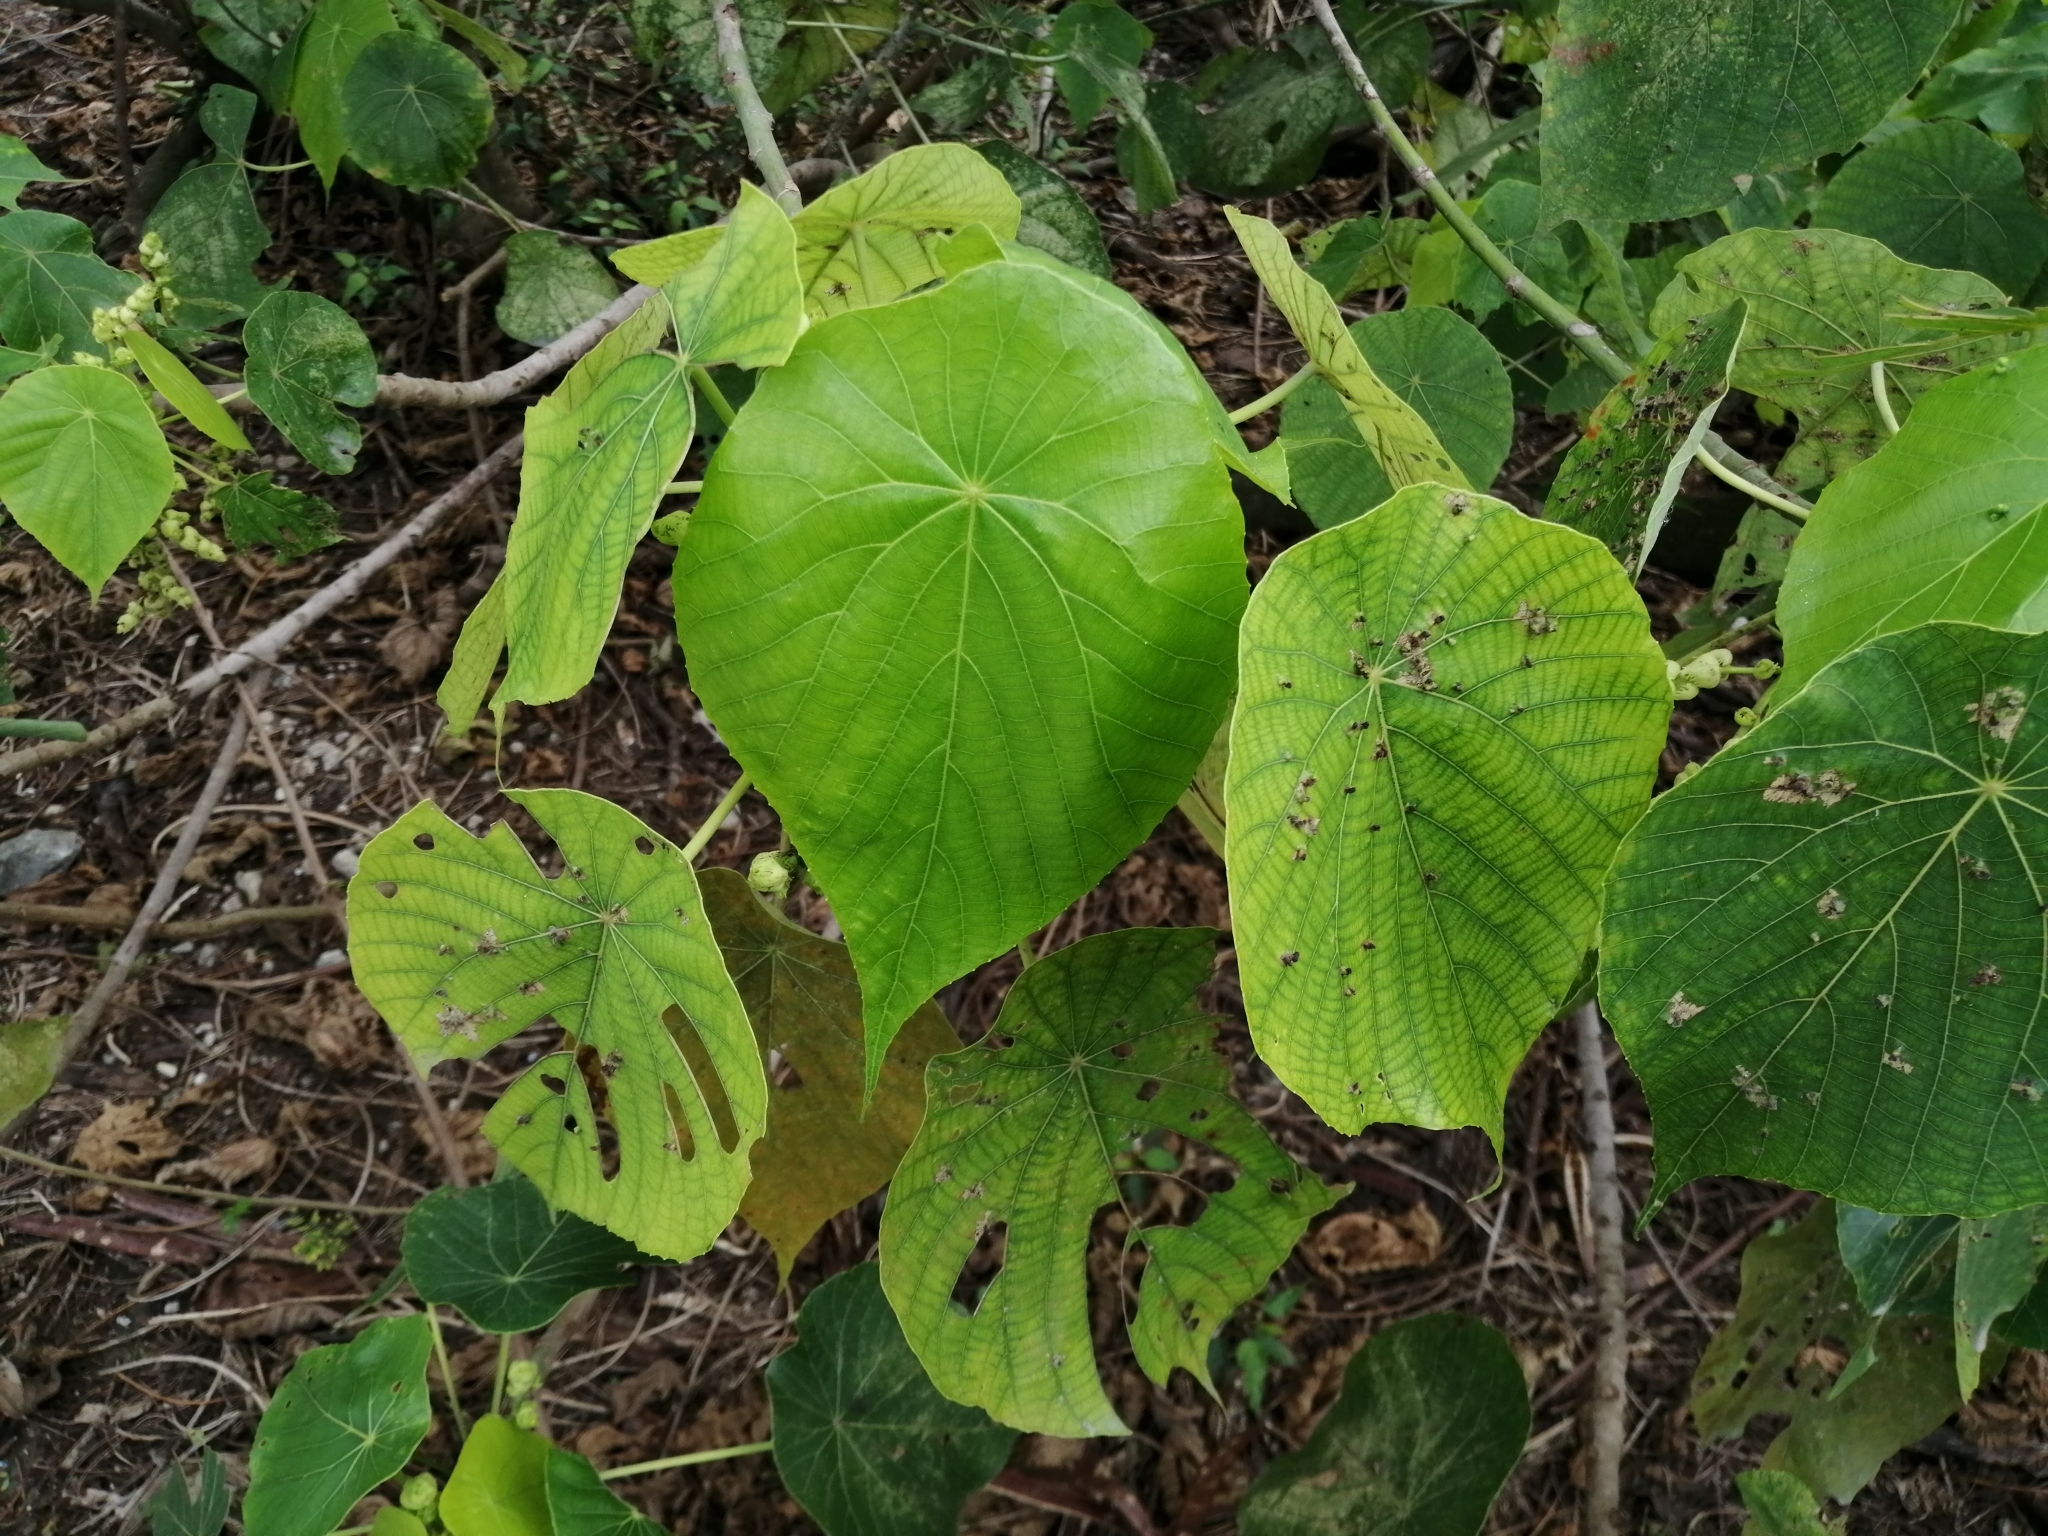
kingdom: Plantae
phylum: Tracheophyta
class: Magnoliopsida
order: Malpighiales
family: Euphorbiaceae
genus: Macaranga
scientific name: Macaranga tanarius
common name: Parasol leaf tree
